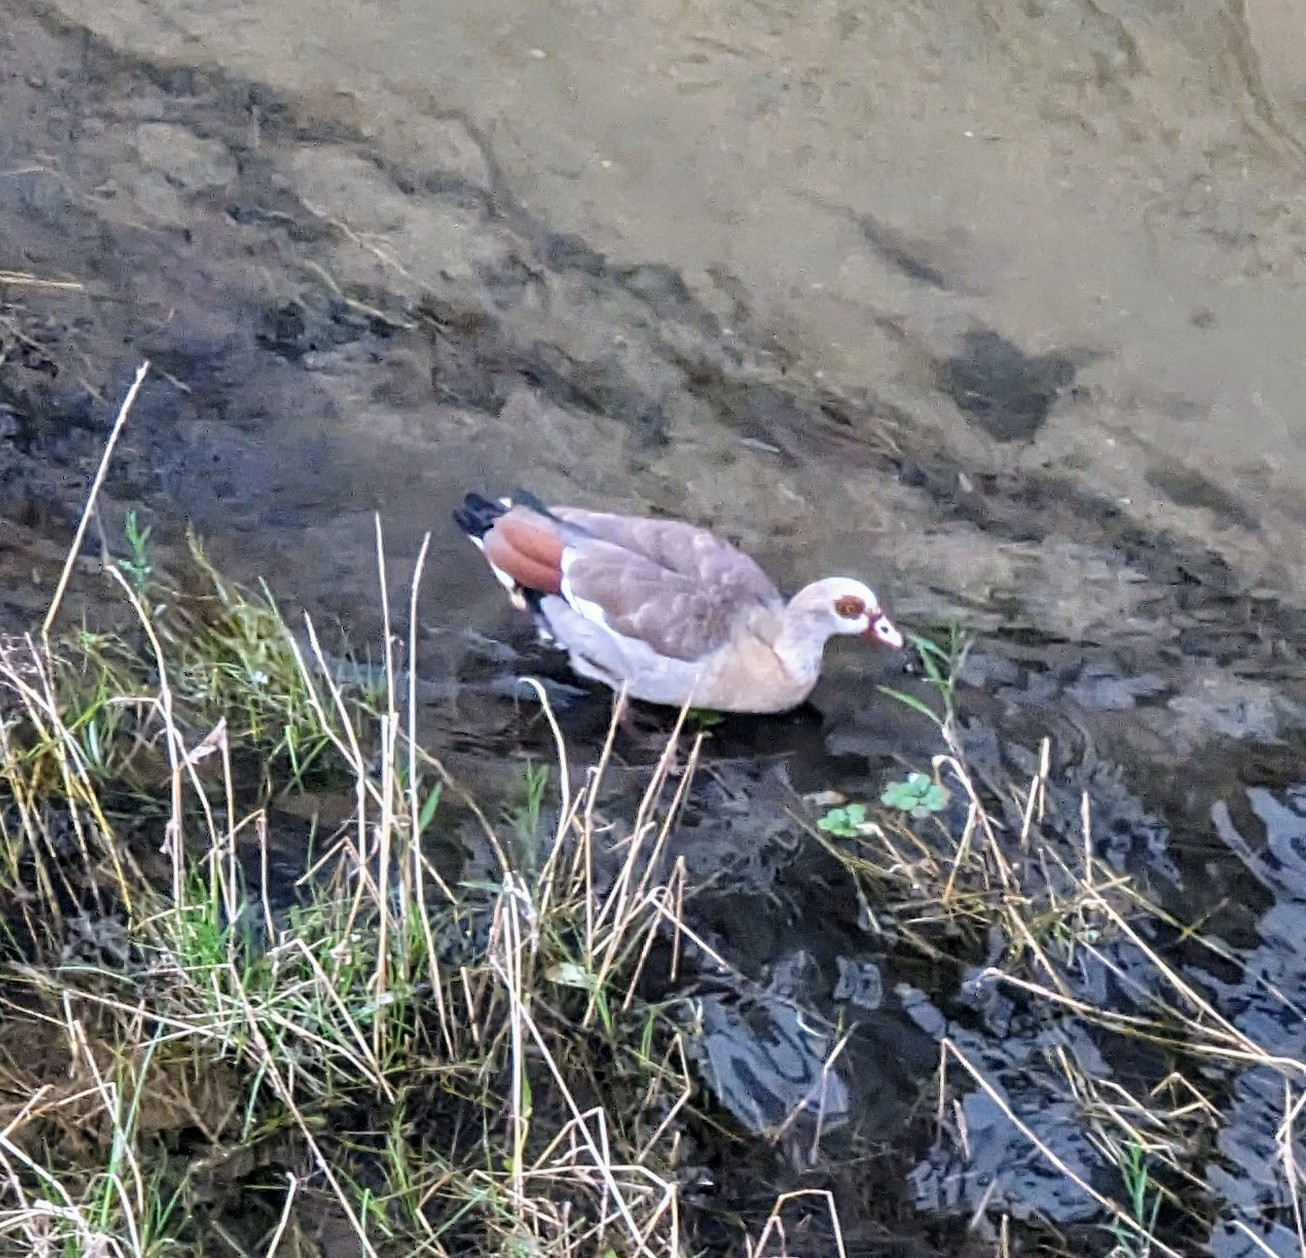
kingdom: Animalia
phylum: Chordata
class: Aves
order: Anseriformes
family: Anatidae
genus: Alopochen
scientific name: Alopochen aegyptiaca
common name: Egyptian goose
